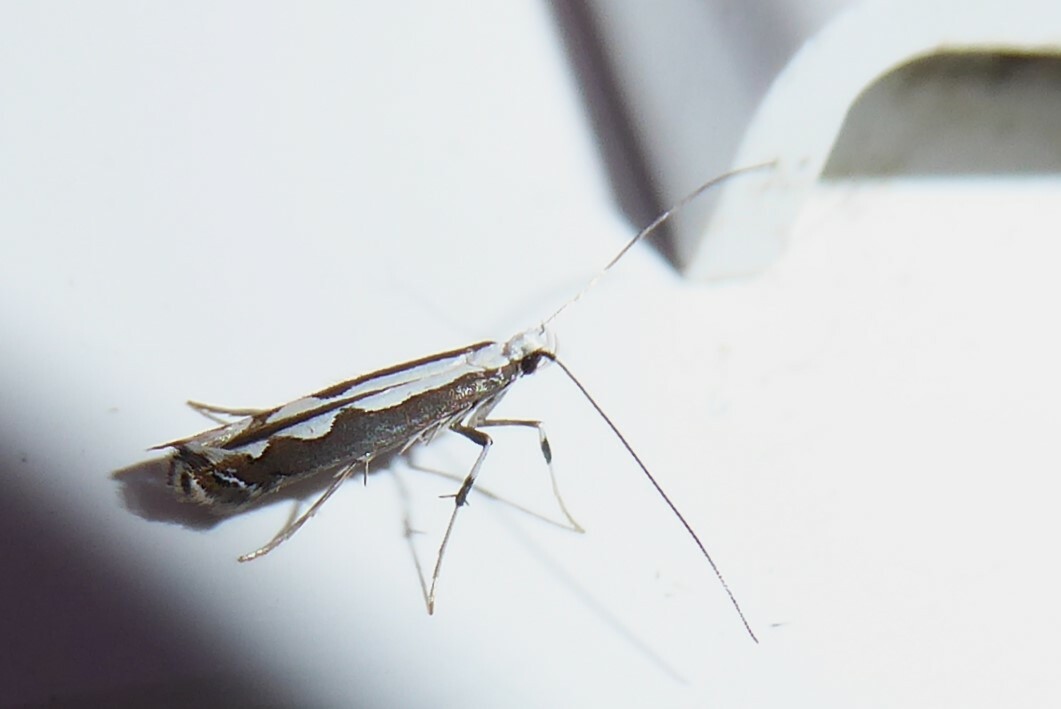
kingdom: Animalia
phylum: Arthropoda
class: Insecta
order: Lepidoptera
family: Gracillariidae
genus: Dialectica
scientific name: Dialectica scalariella
